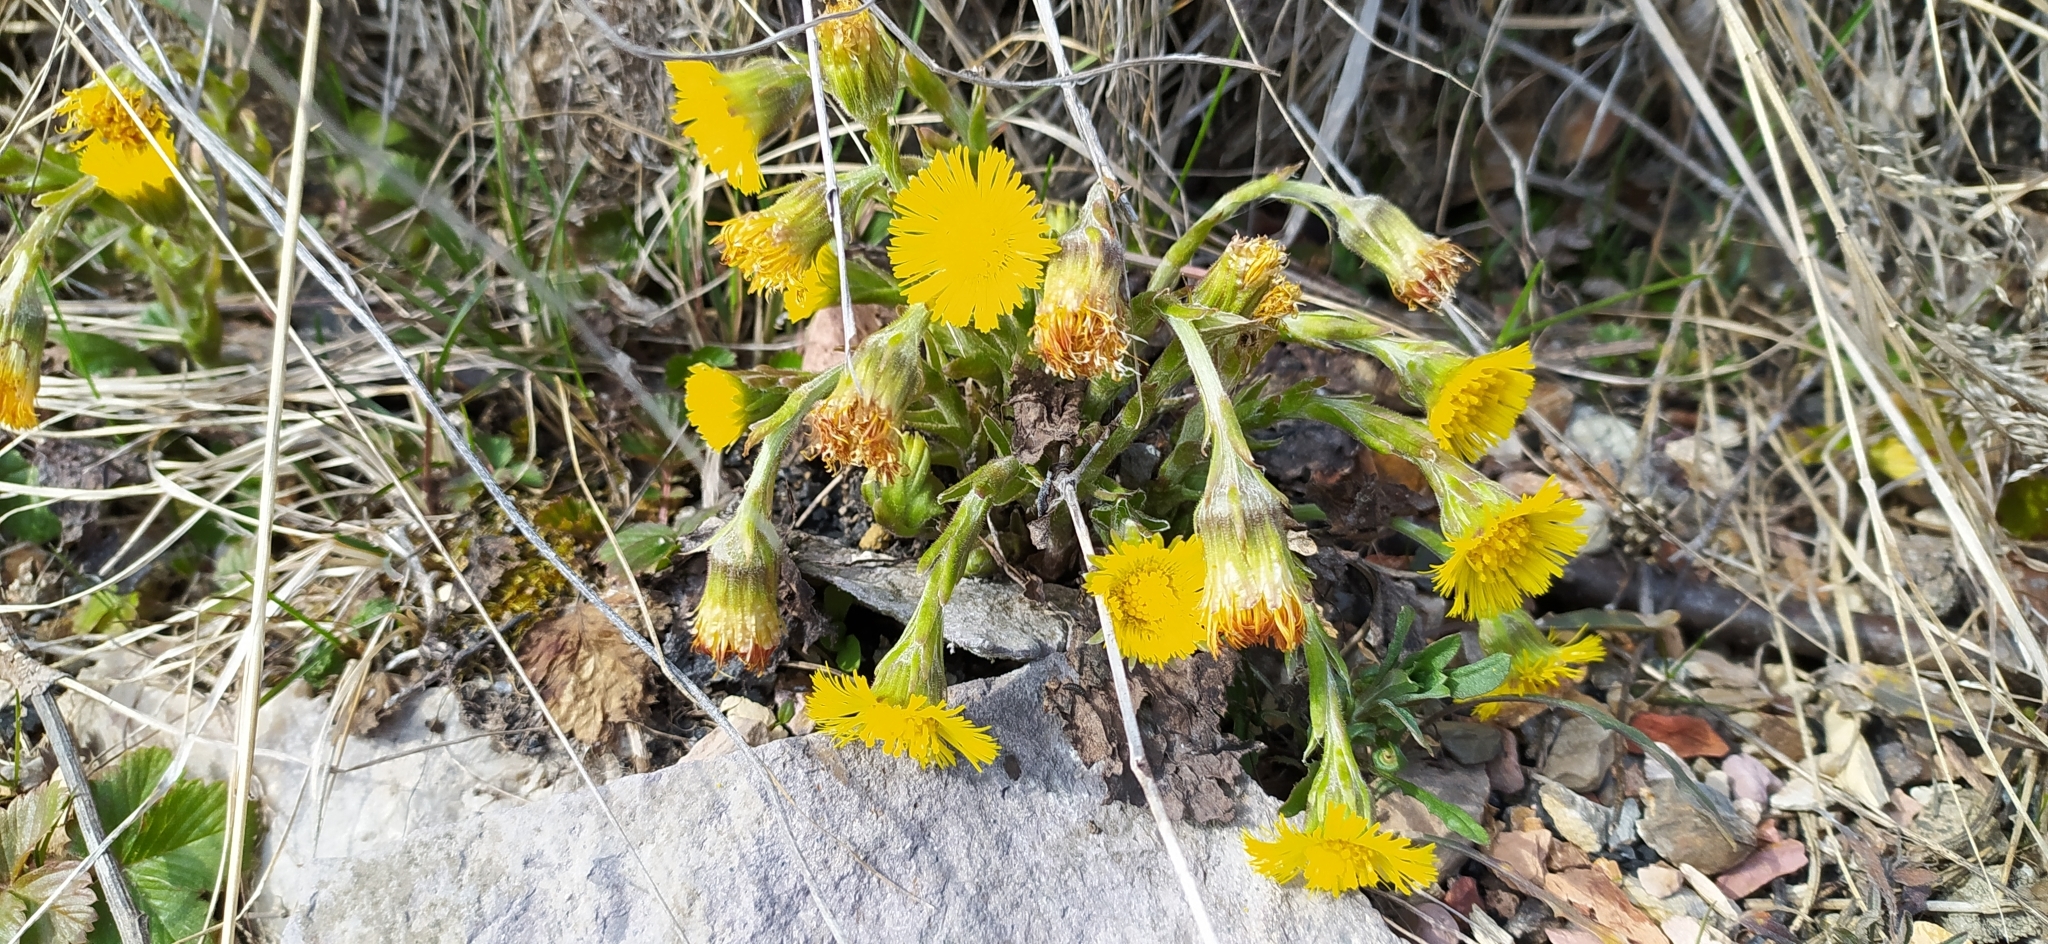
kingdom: Plantae
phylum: Tracheophyta
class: Magnoliopsida
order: Asterales
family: Asteraceae
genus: Tussilago
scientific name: Tussilago farfara
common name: Coltsfoot
